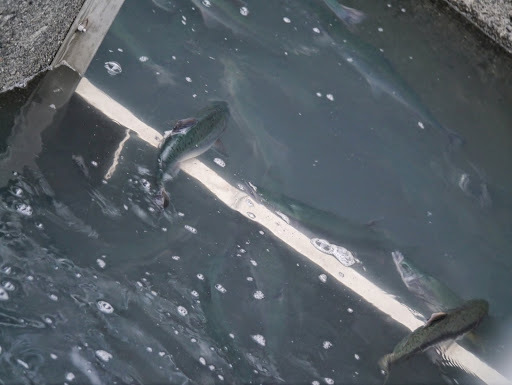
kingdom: Animalia
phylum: Chordata
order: Salmoniformes
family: Salmonidae
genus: Oncorhynchus
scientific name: Oncorhynchus gorbuscha
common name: Humpback salmon
